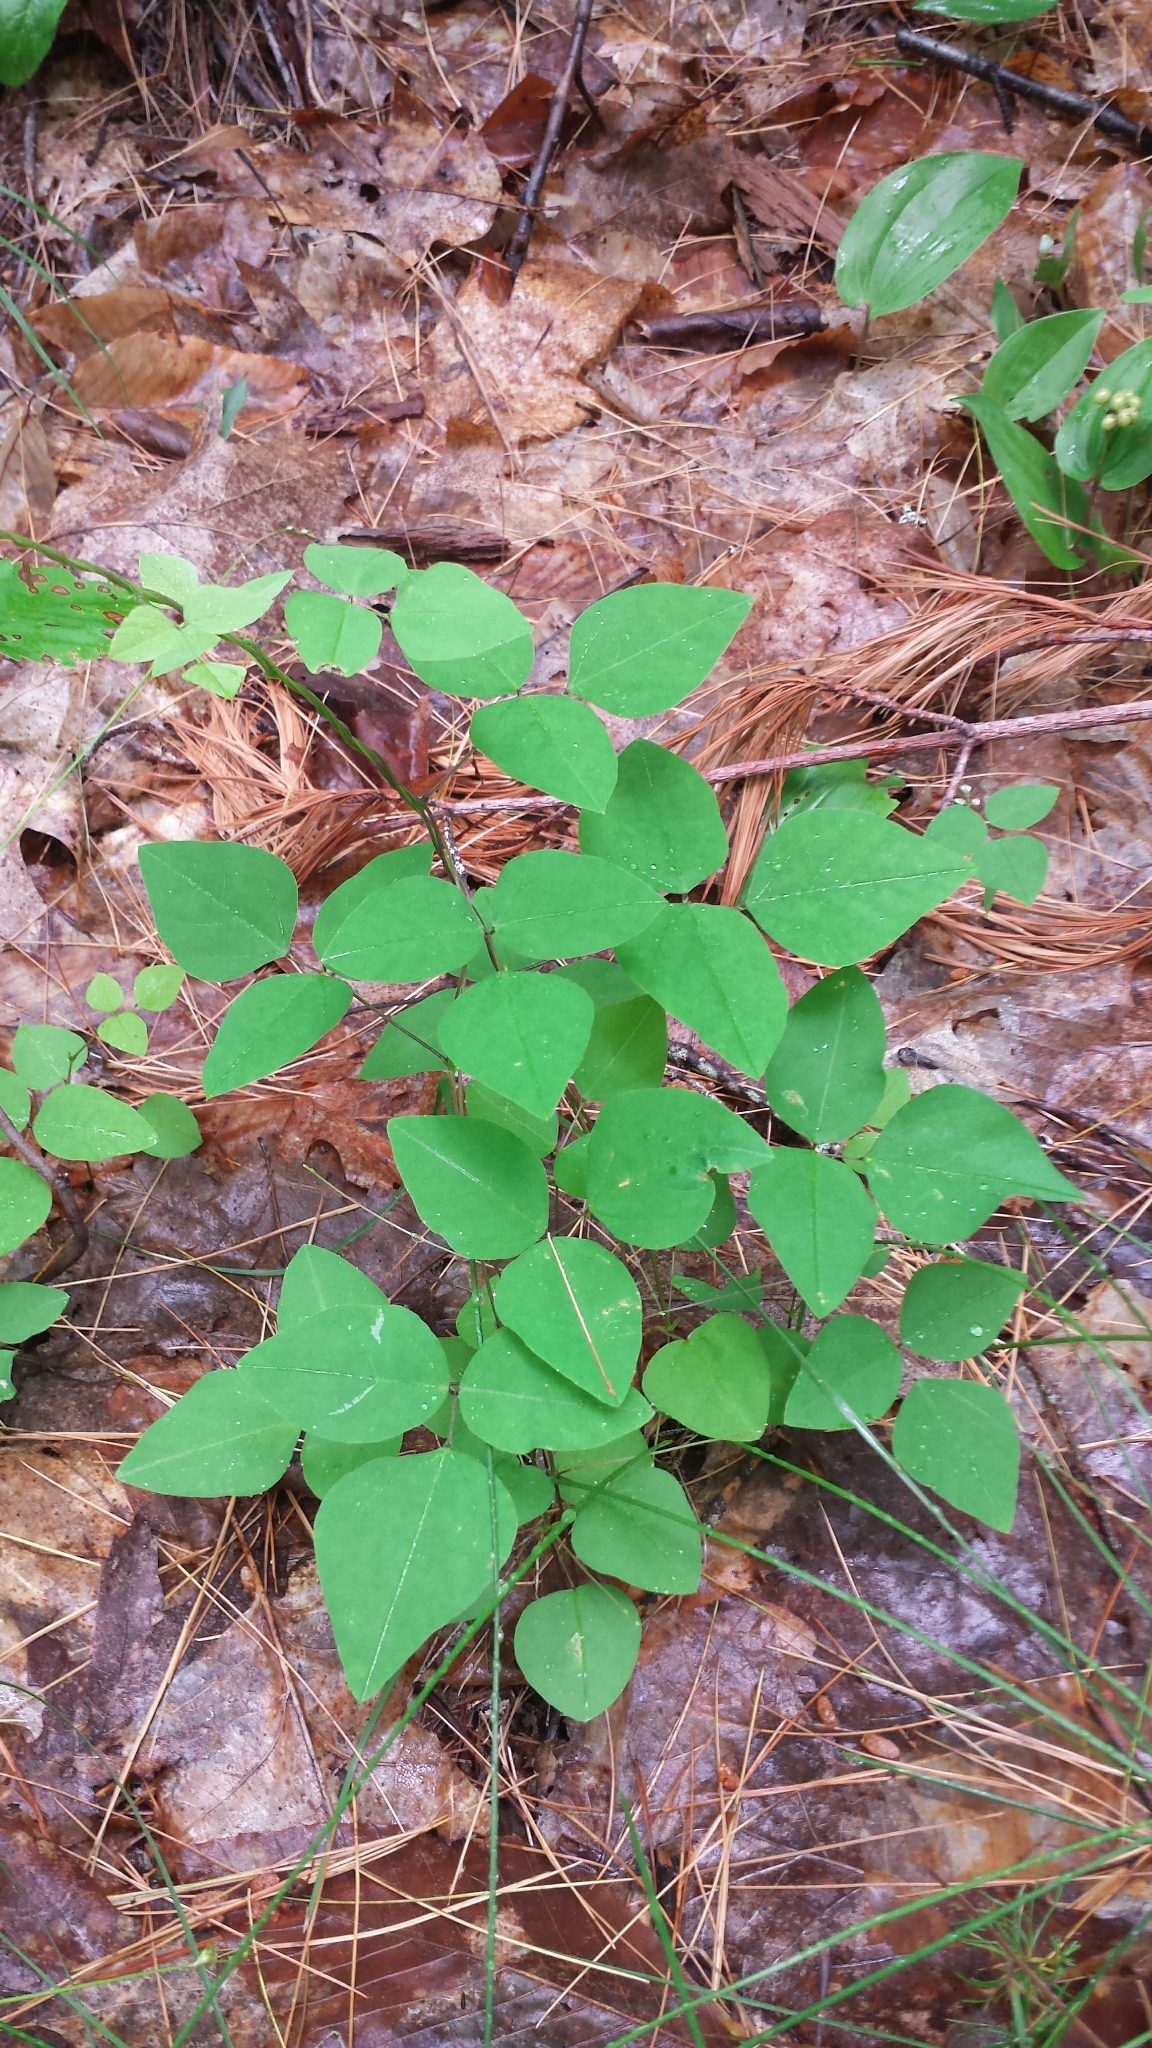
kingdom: Plantae
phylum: Tracheophyta
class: Magnoliopsida
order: Fabales
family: Fabaceae
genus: Amphicarpaea
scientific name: Amphicarpaea bracteata
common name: American hog peanut
